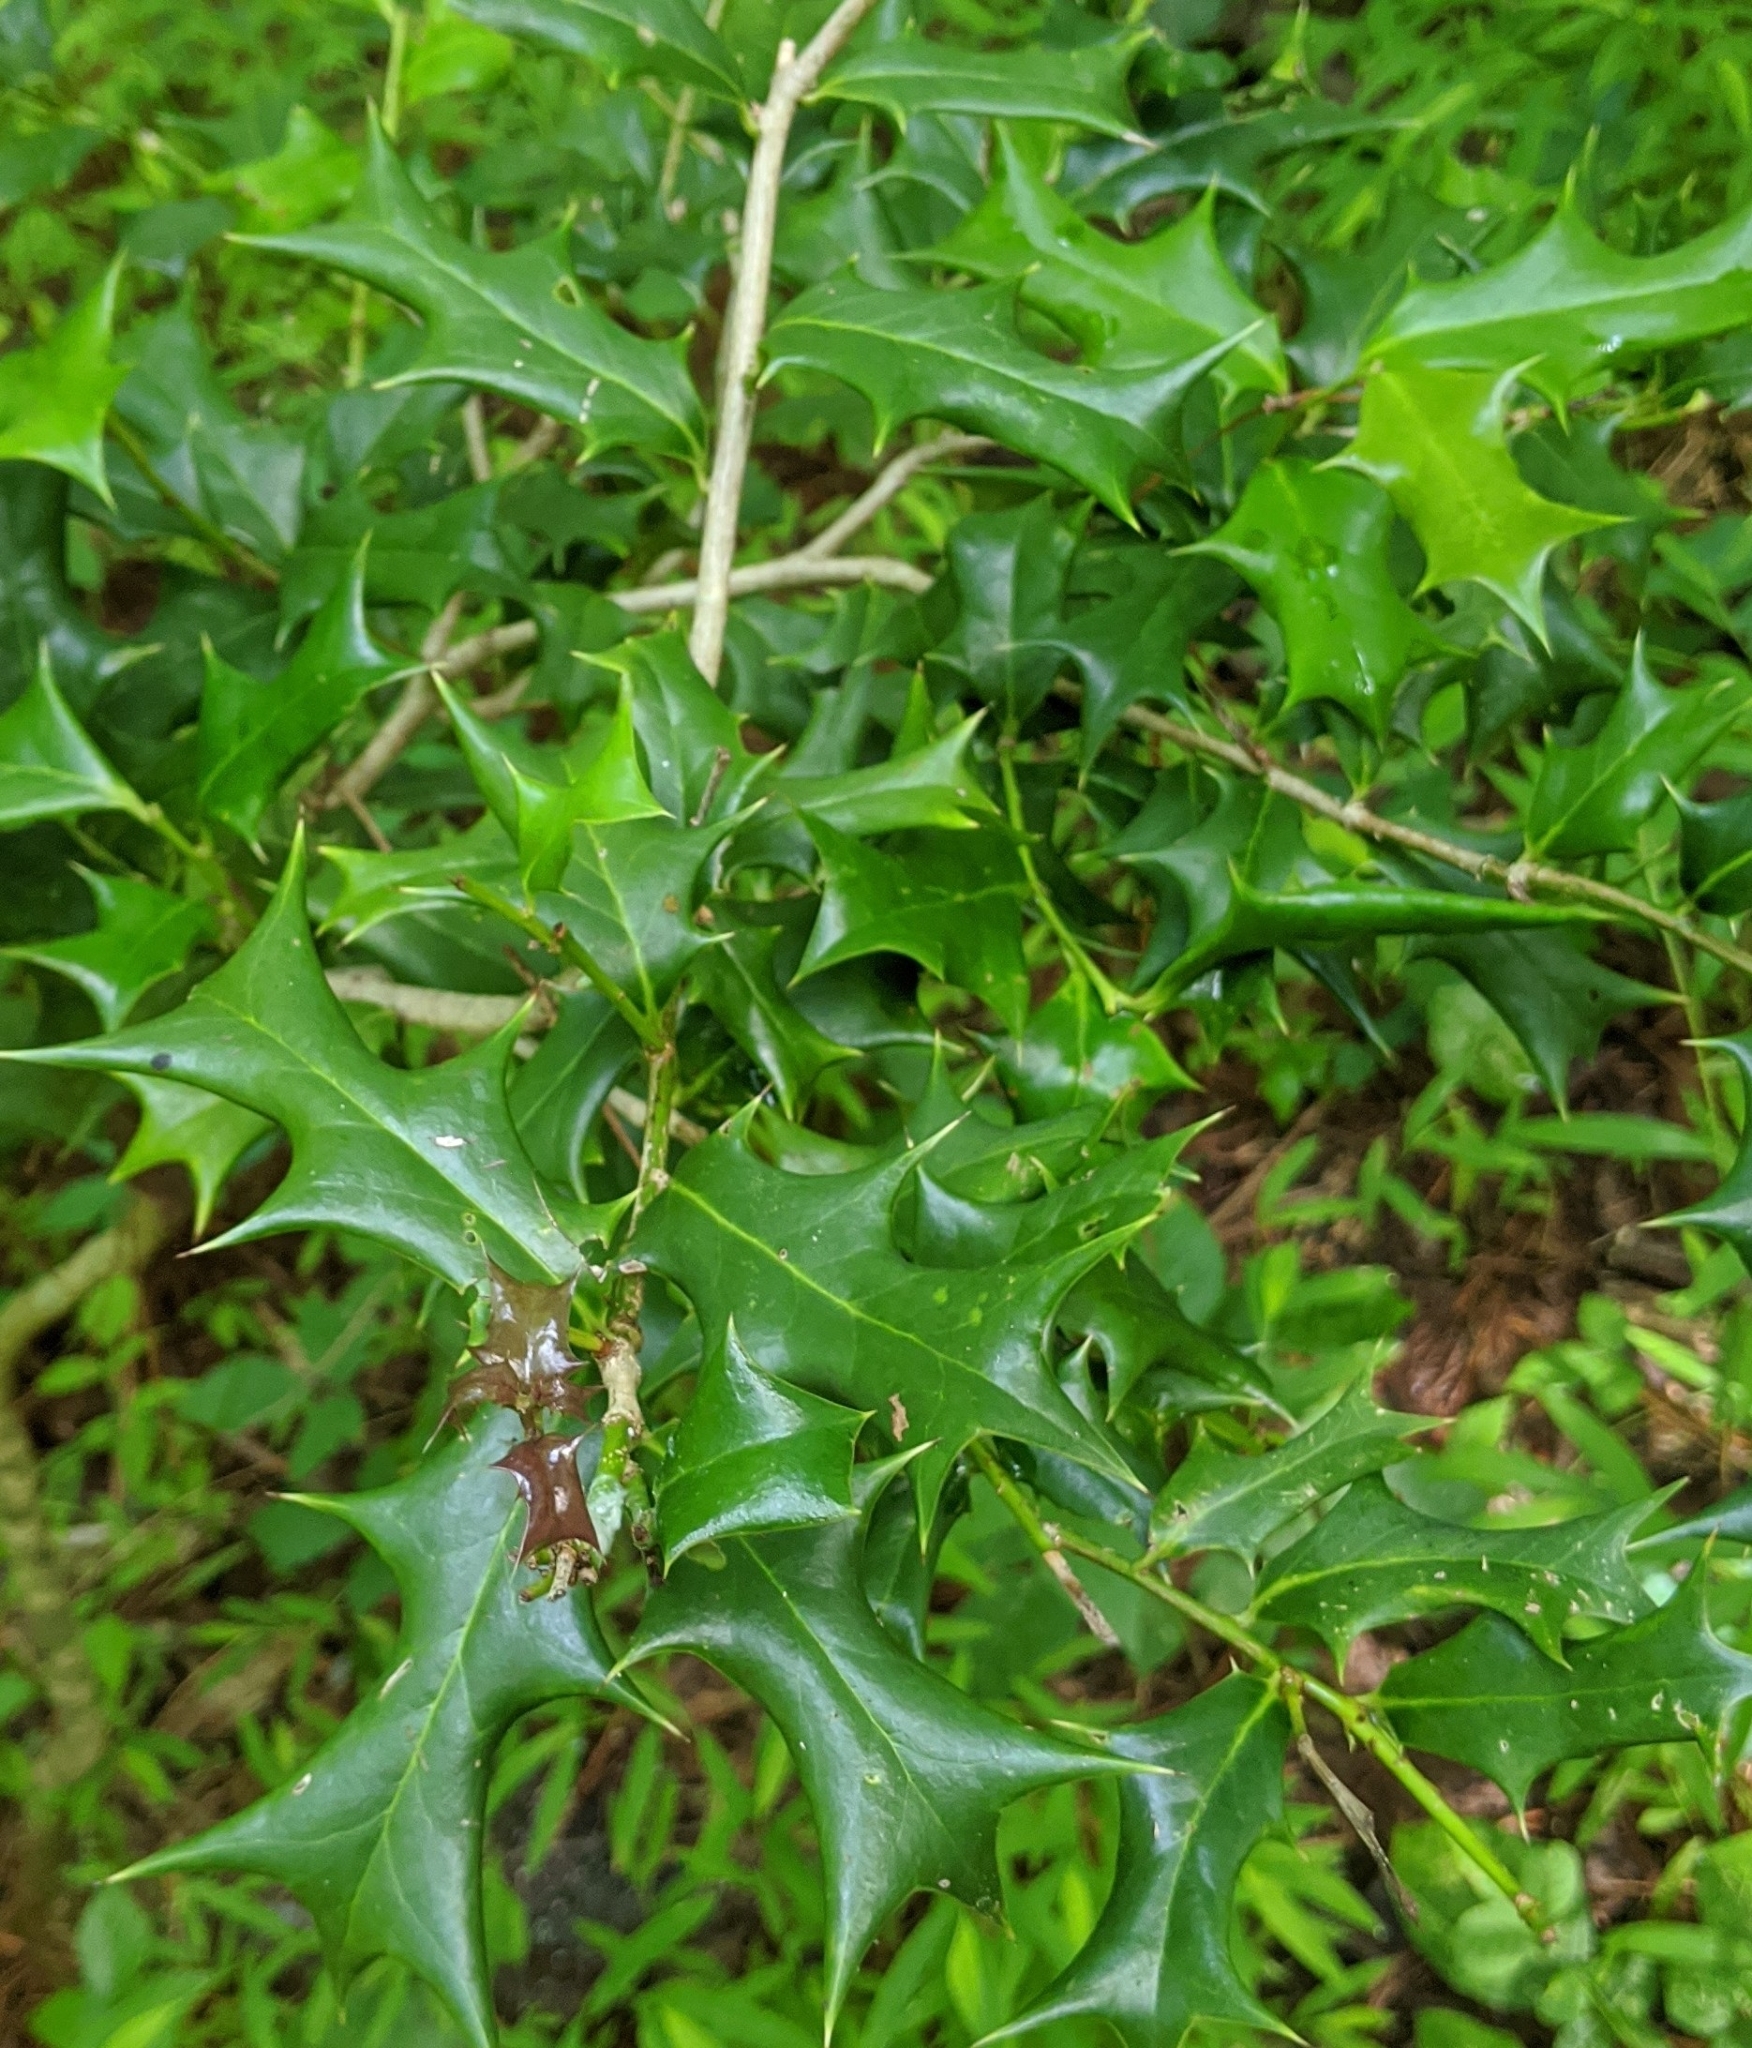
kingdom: Plantae
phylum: Tracheophyta
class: Magnoliopsida
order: Aquifoliales
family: Aquifoliaceae
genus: Ilex
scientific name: Ilex cornuta
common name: Chinese holly
